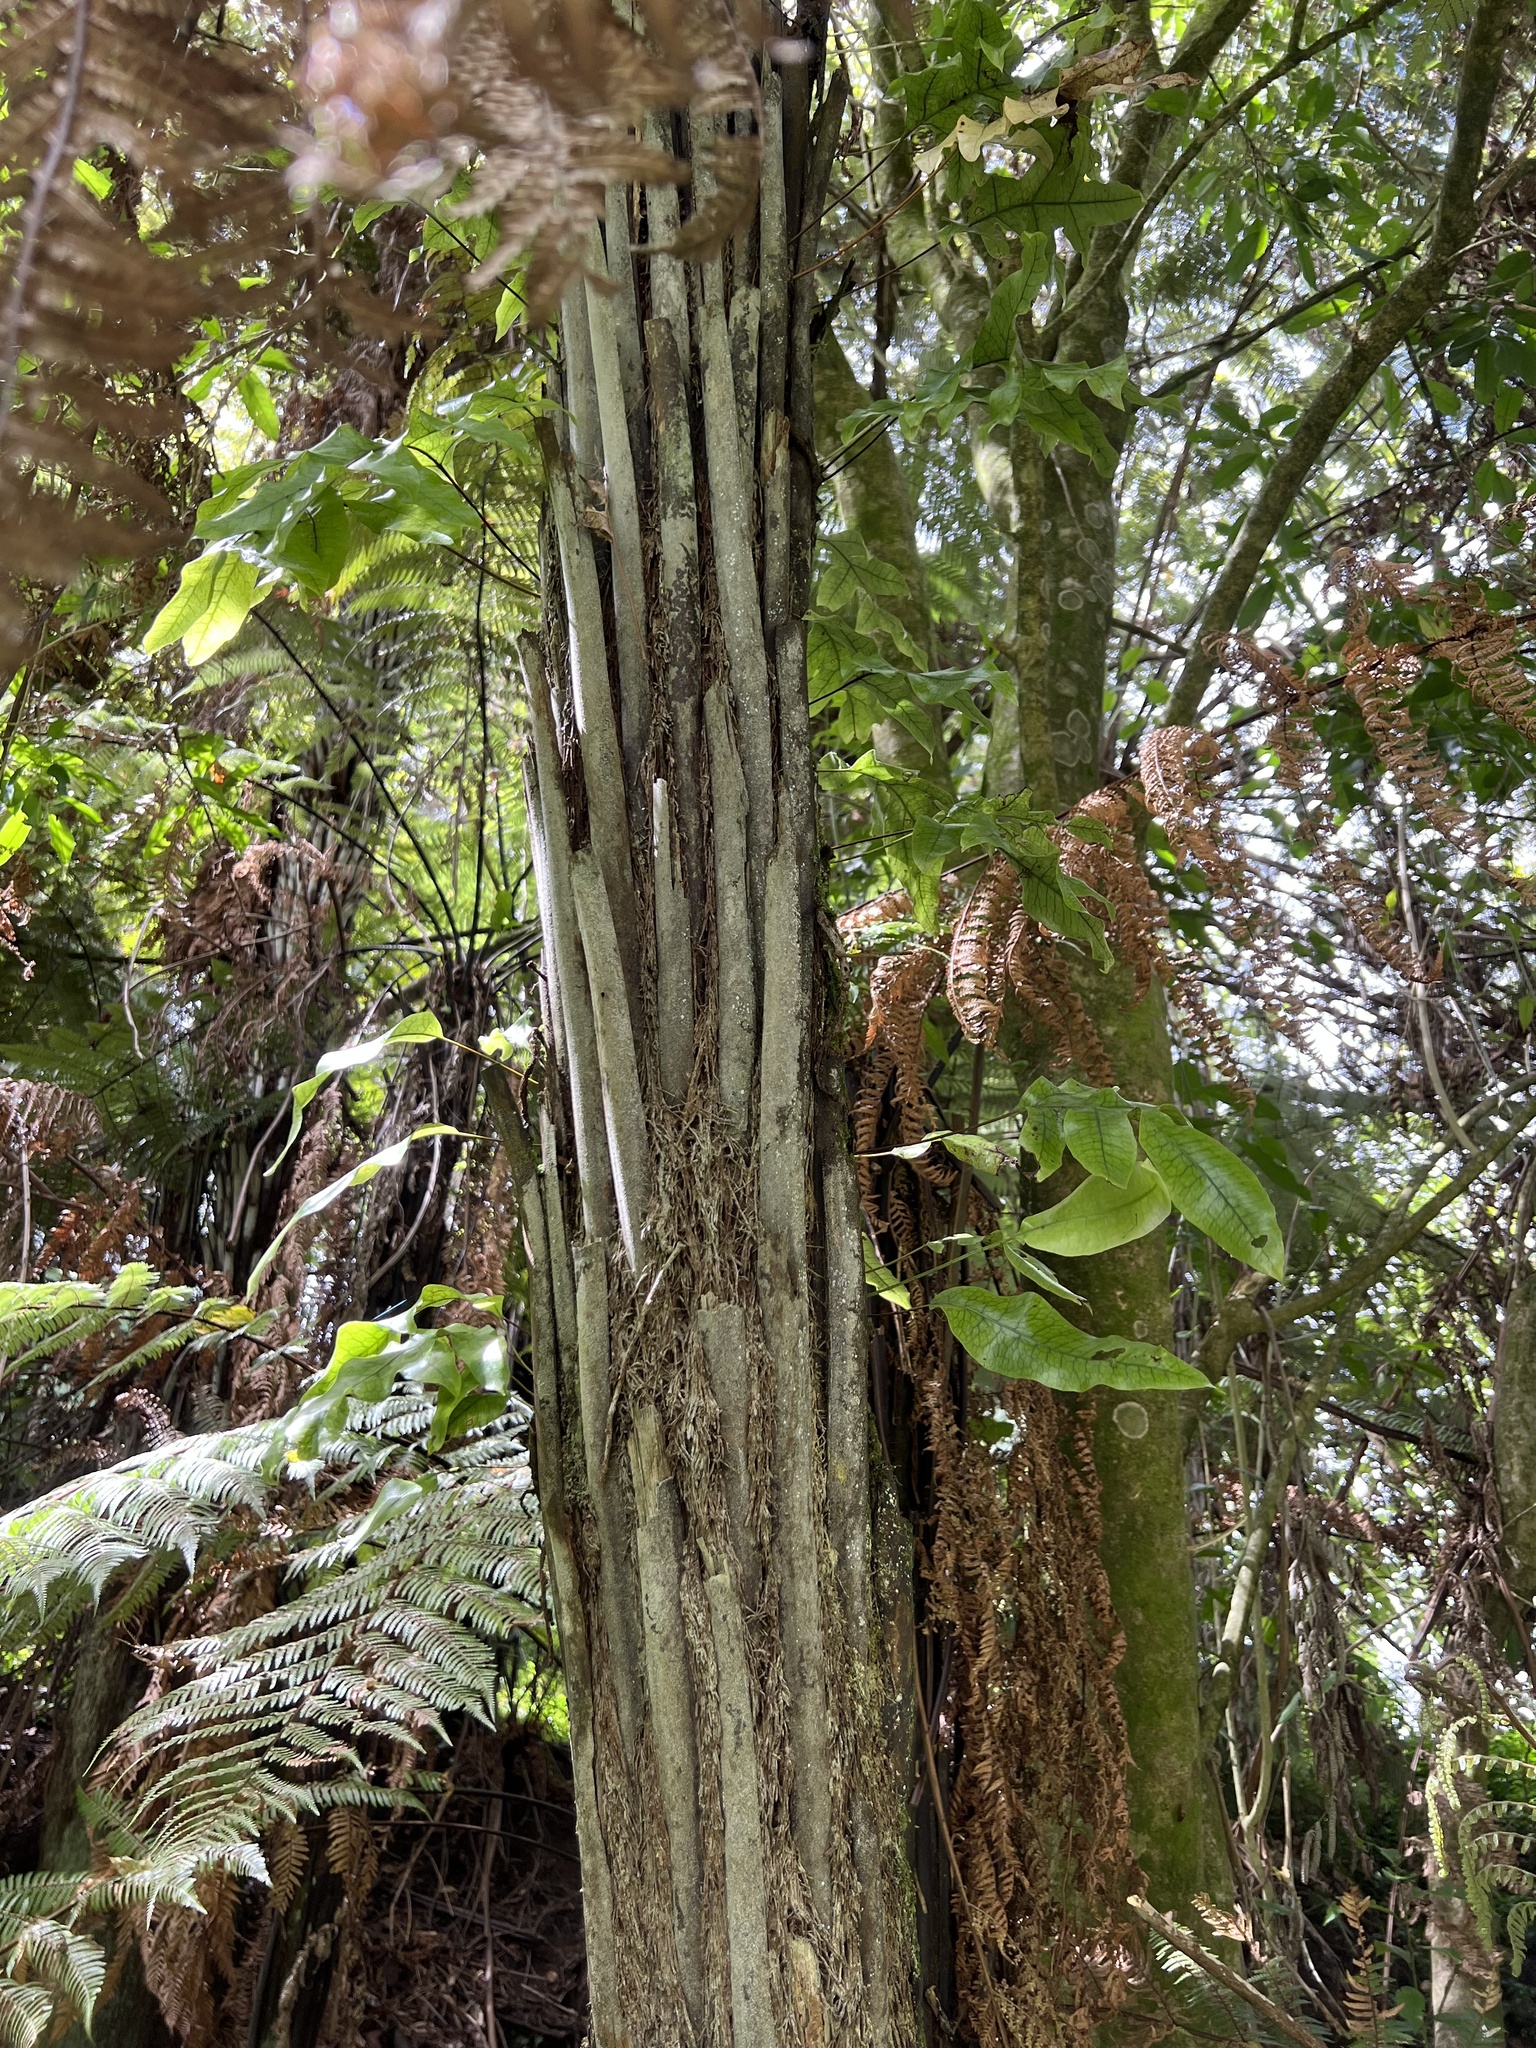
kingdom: Plantae
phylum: Tracheophyta
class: Polypodiopsida
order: Polypodiales
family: Polypodiaceae
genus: Lecanopteris
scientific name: Lecanopteris pustulata
